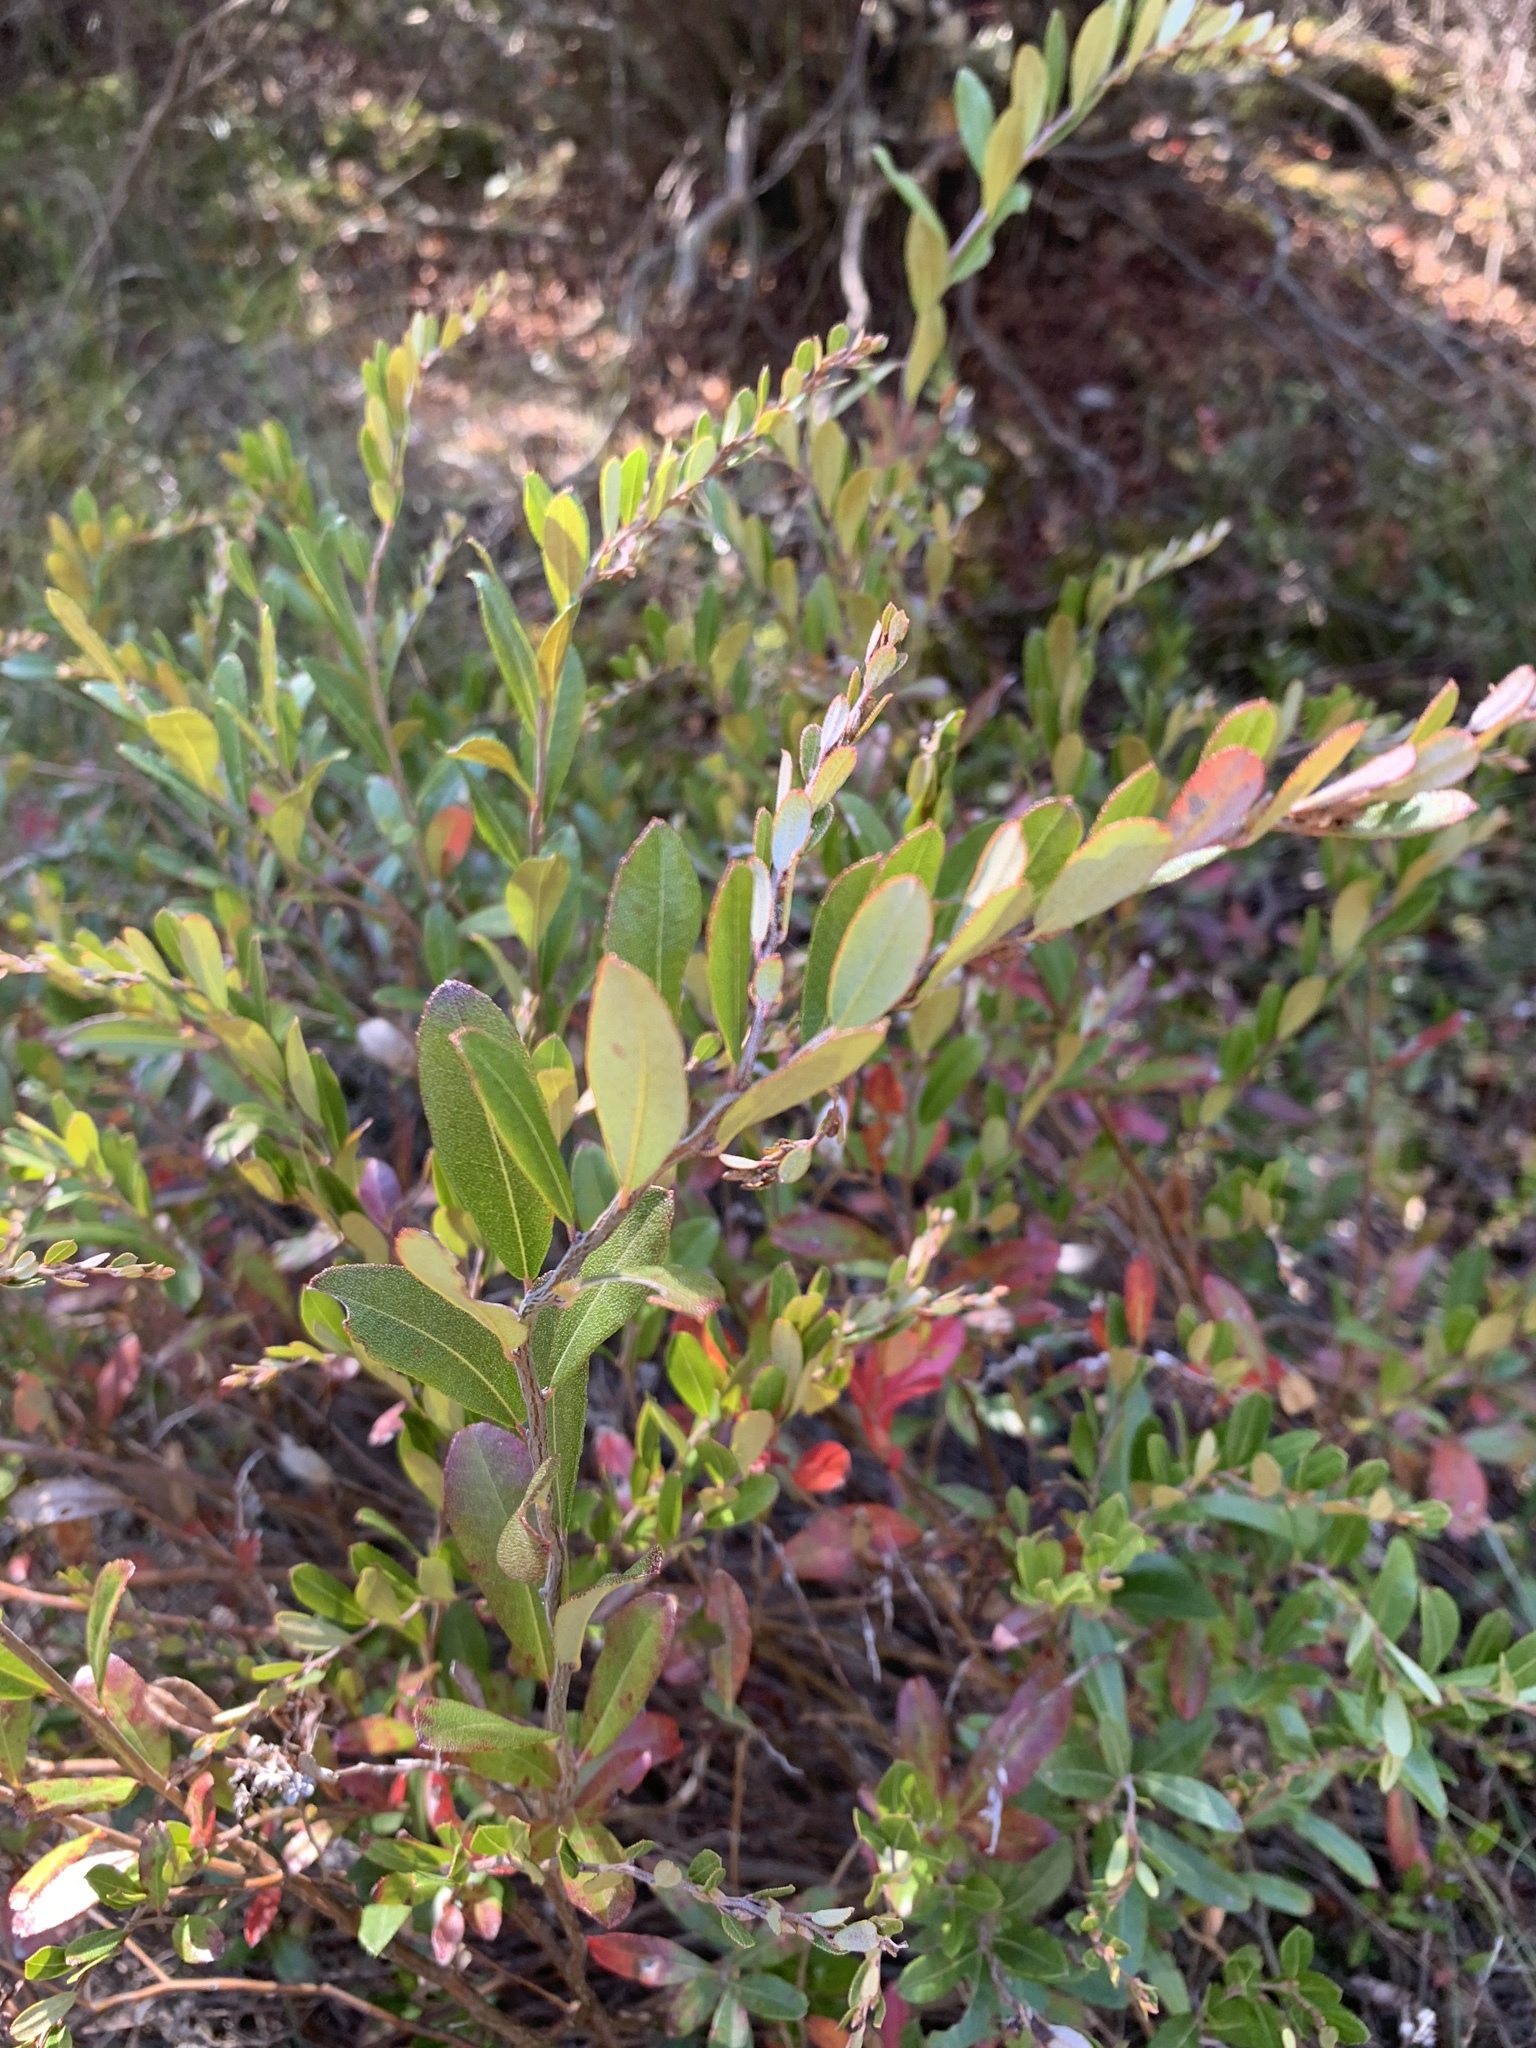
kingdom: Plantae
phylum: Tracheophyta
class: Magnoliopsida
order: Ericales
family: Ericaceae
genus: Chamaedaphne
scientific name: Chamaedaphne calyculata
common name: Leatherleaf
